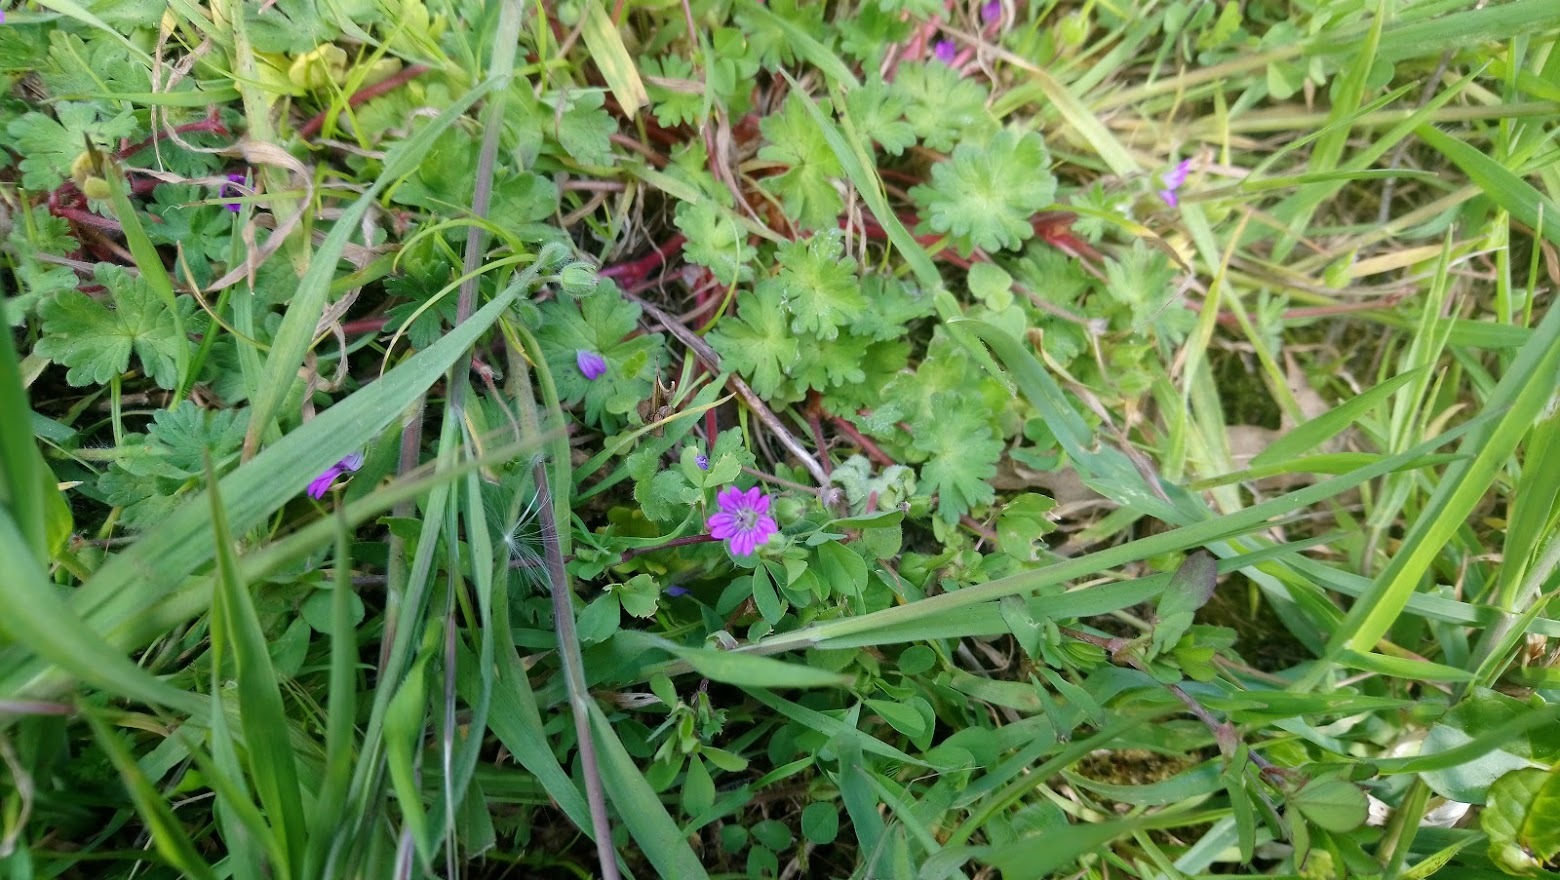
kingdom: Plantae
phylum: Tracheophyta
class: Magnoliopsida
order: Geraniales
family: Geraniaceae
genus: Geranium
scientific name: Geranium molle
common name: Dove's-foot crane's-bill
